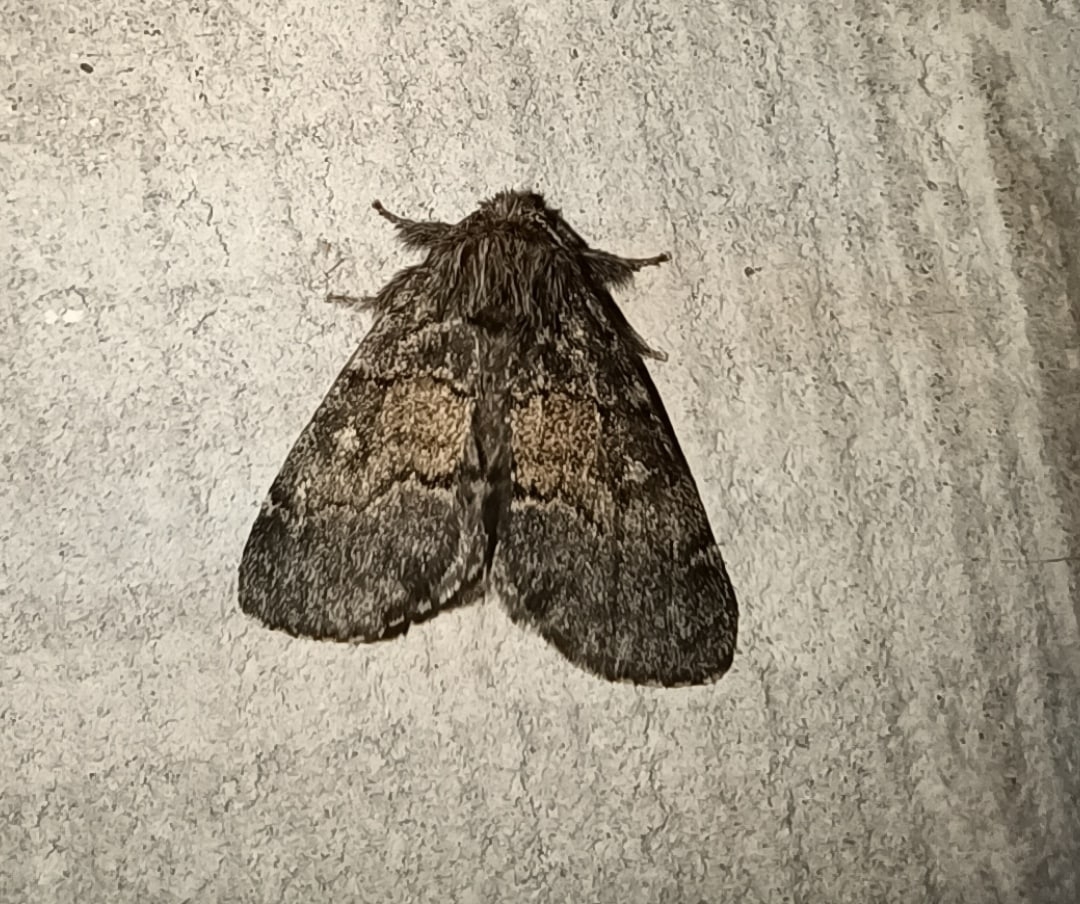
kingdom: Animalia
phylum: Arthropoda
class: Insecta
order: Lepidoptera
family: Notodontidae
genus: Gluphisia
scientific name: Gluphisia crenata
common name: Dusky marbled brown
